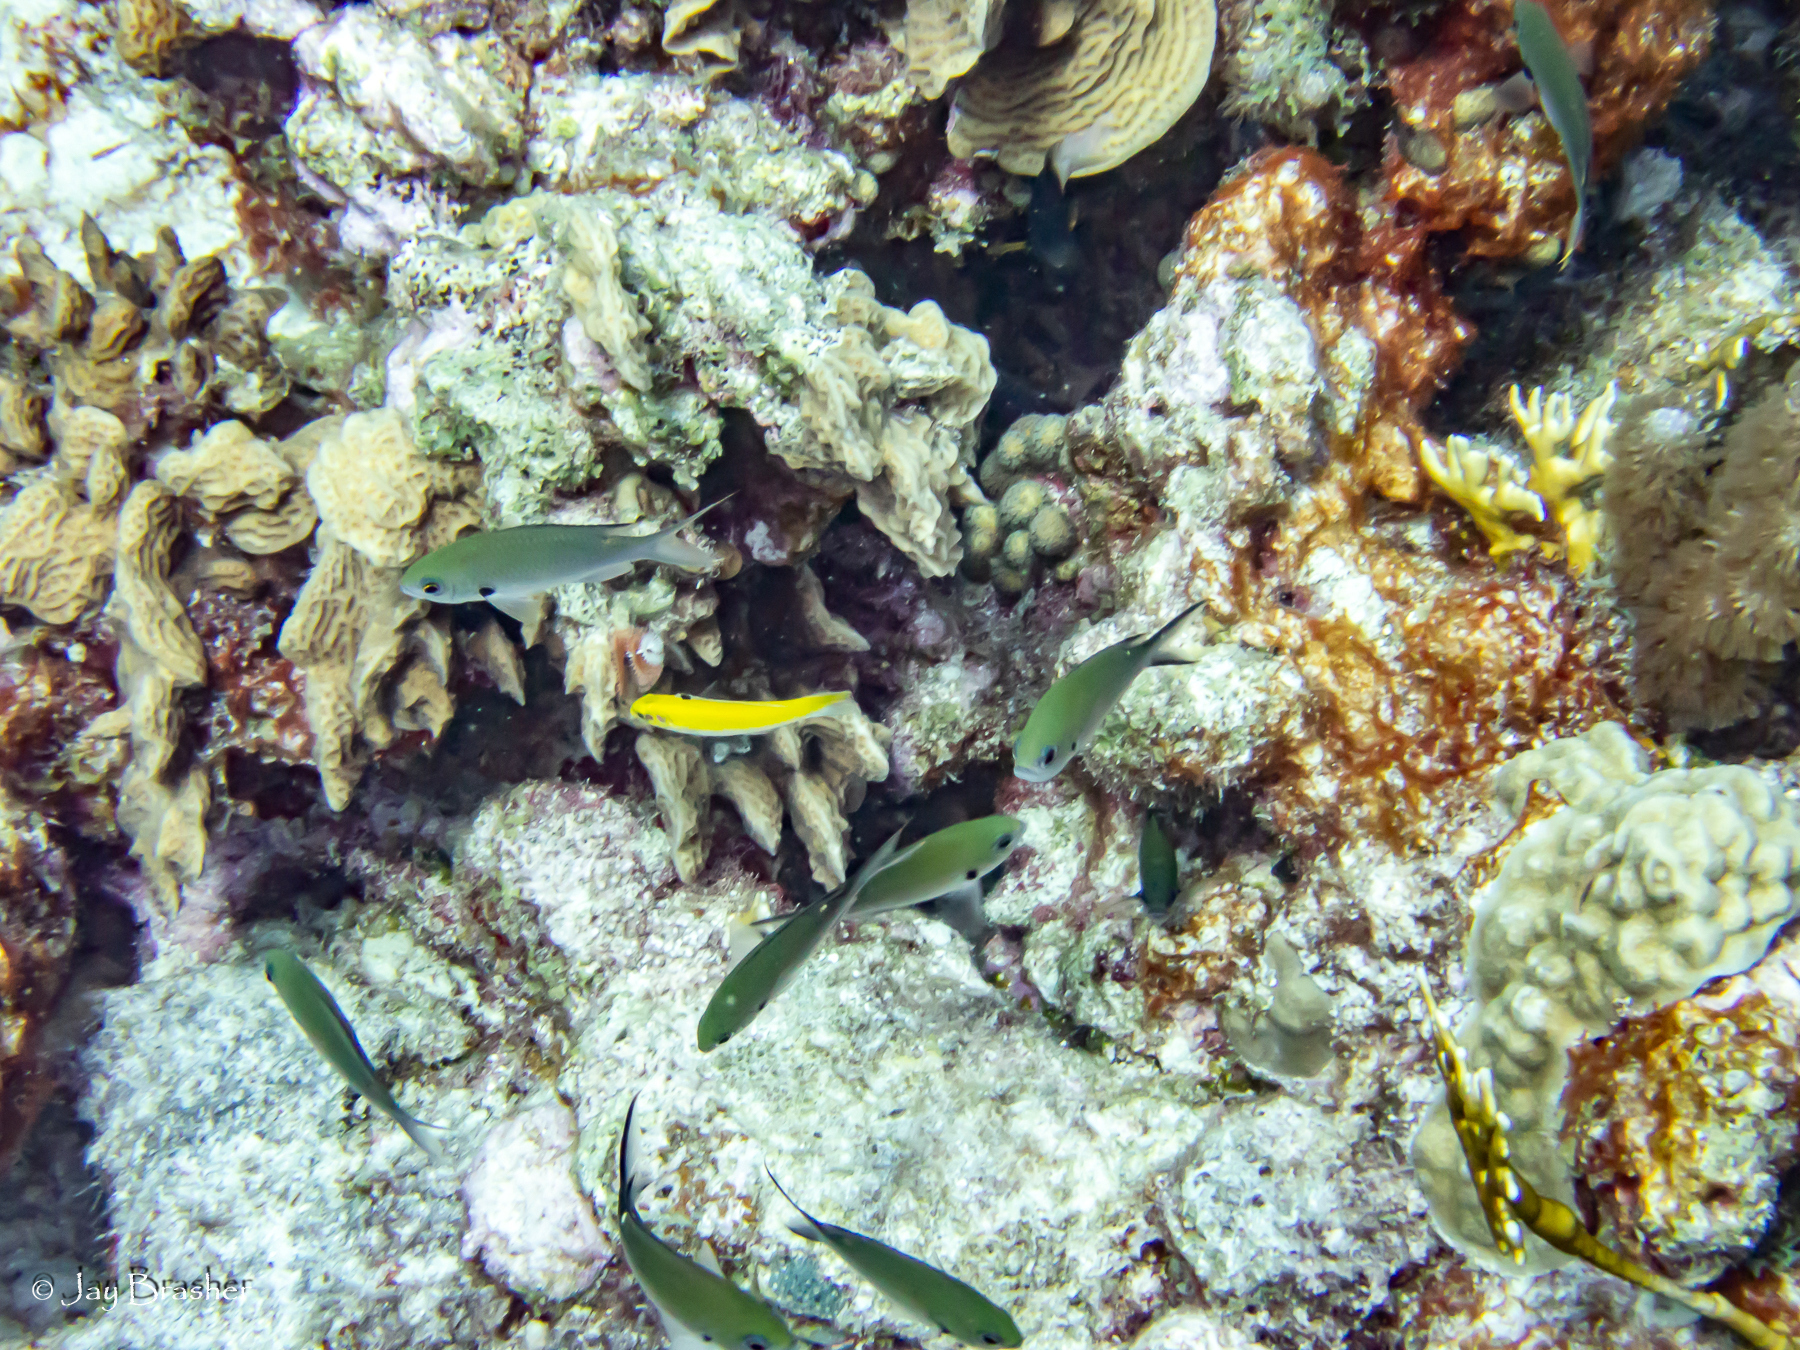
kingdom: Animalia
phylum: Chordata
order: Perciformes
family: Labridae
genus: Thalassoma
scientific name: Thalassoma bifasciatum
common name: Bluehead wrasse
